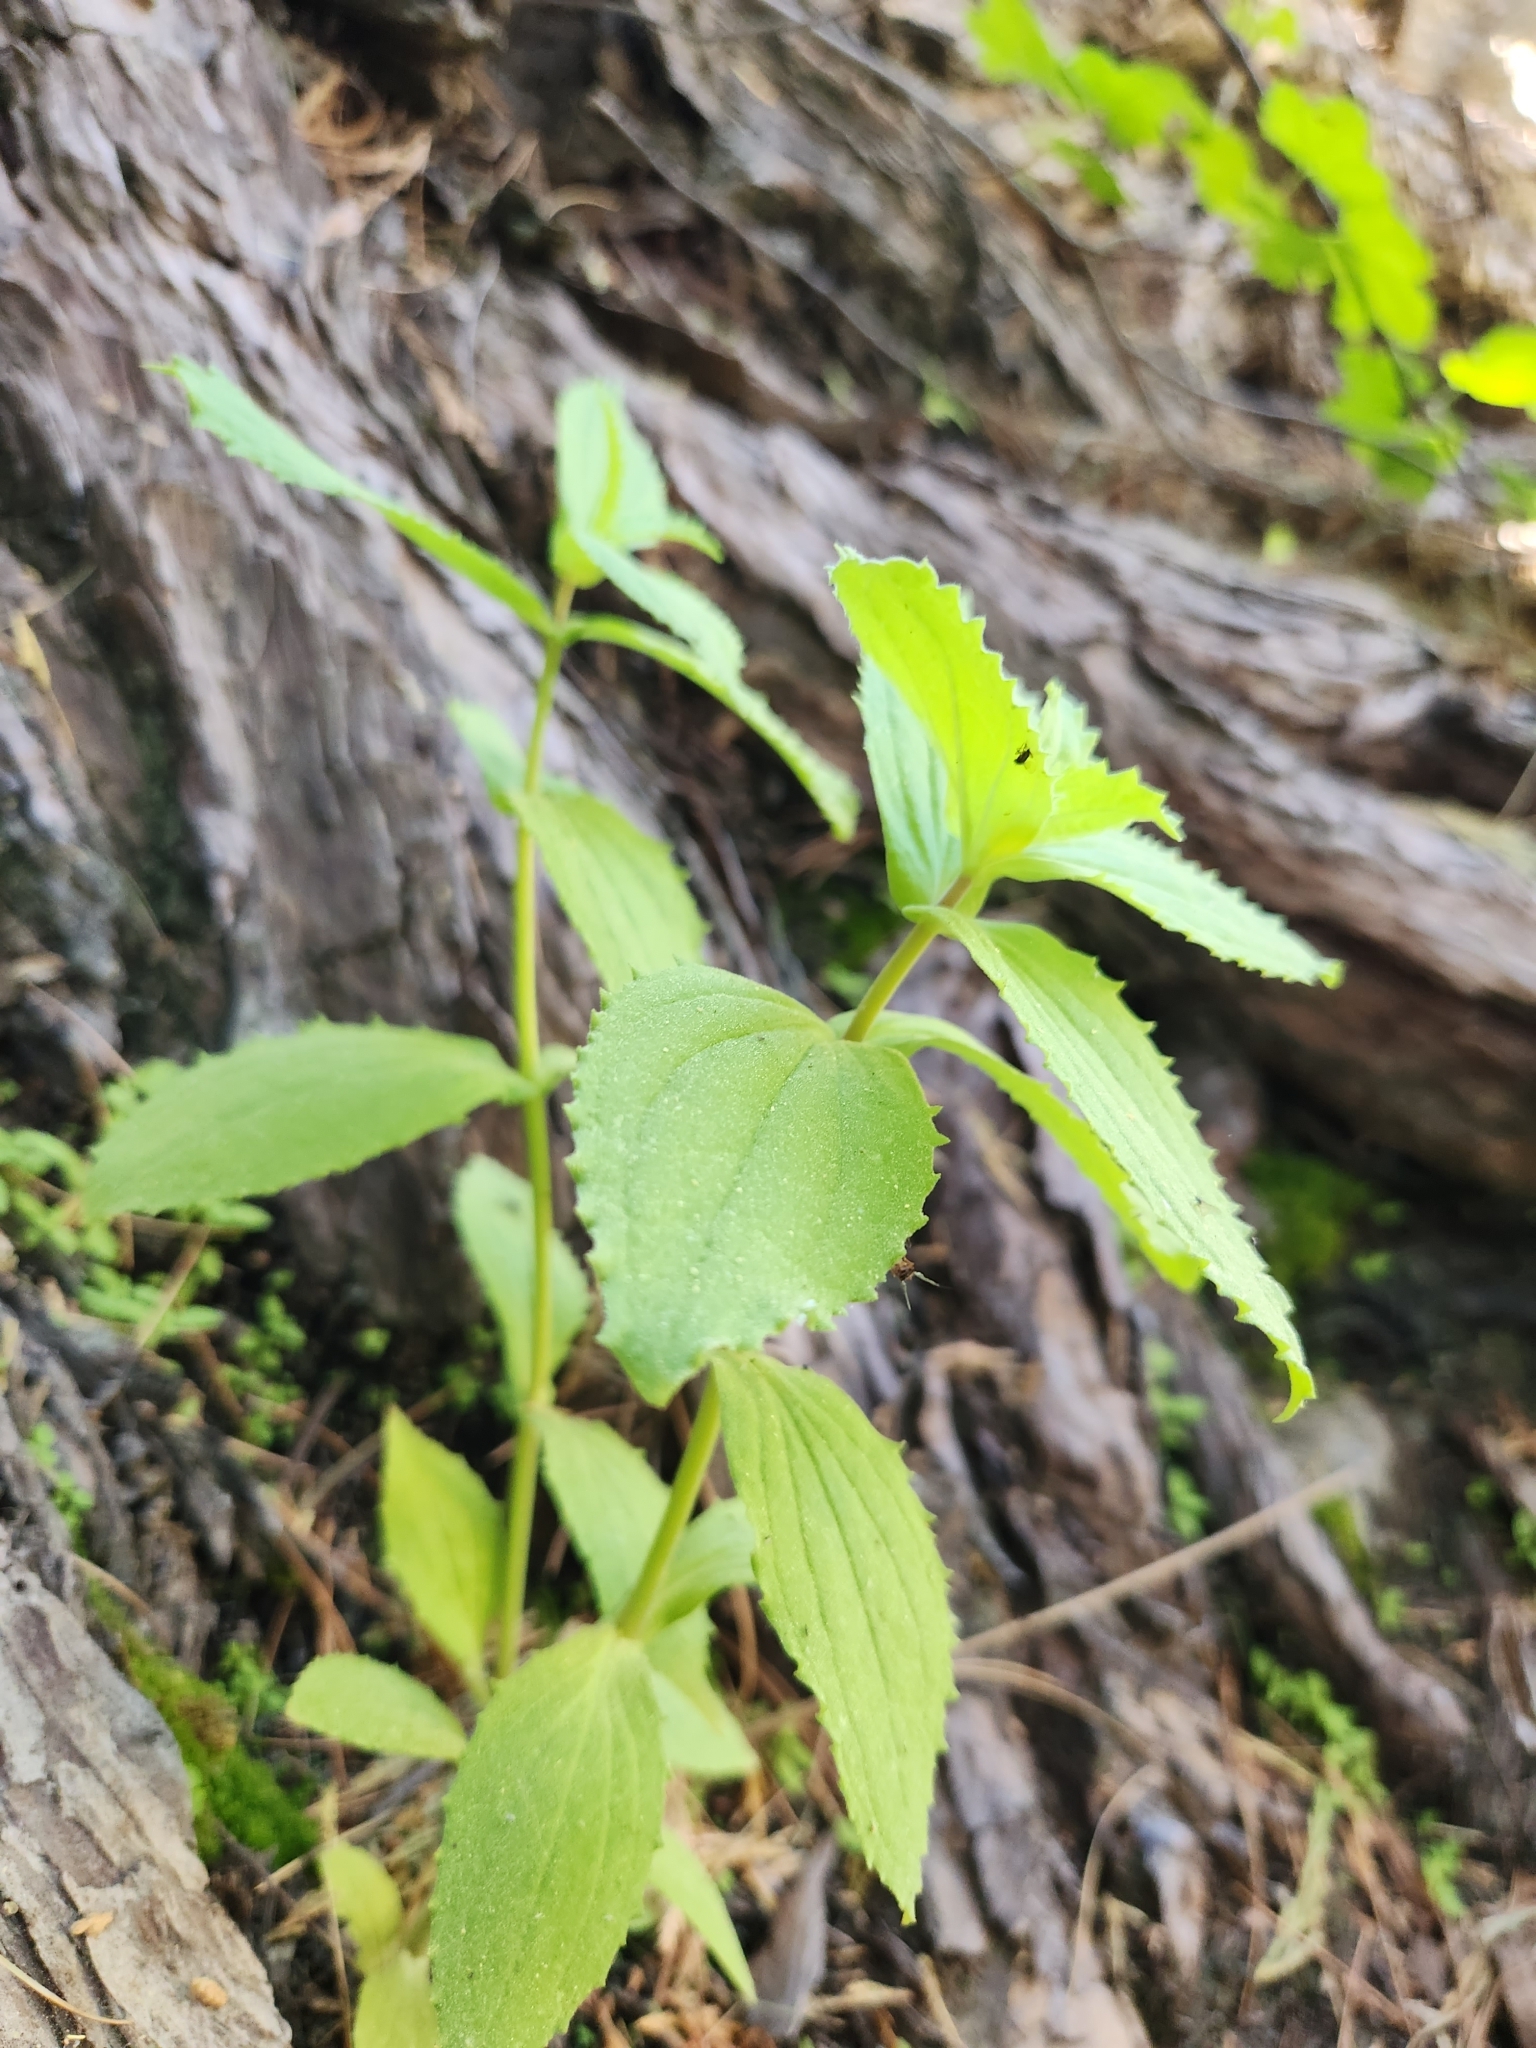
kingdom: Plantae
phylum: Tracheophyta
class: Magnoliopsida
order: Lamiales
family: Phrymaceae
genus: Erythranthe
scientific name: Erythranthe cardinalis
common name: Scarlet monkey-flower
